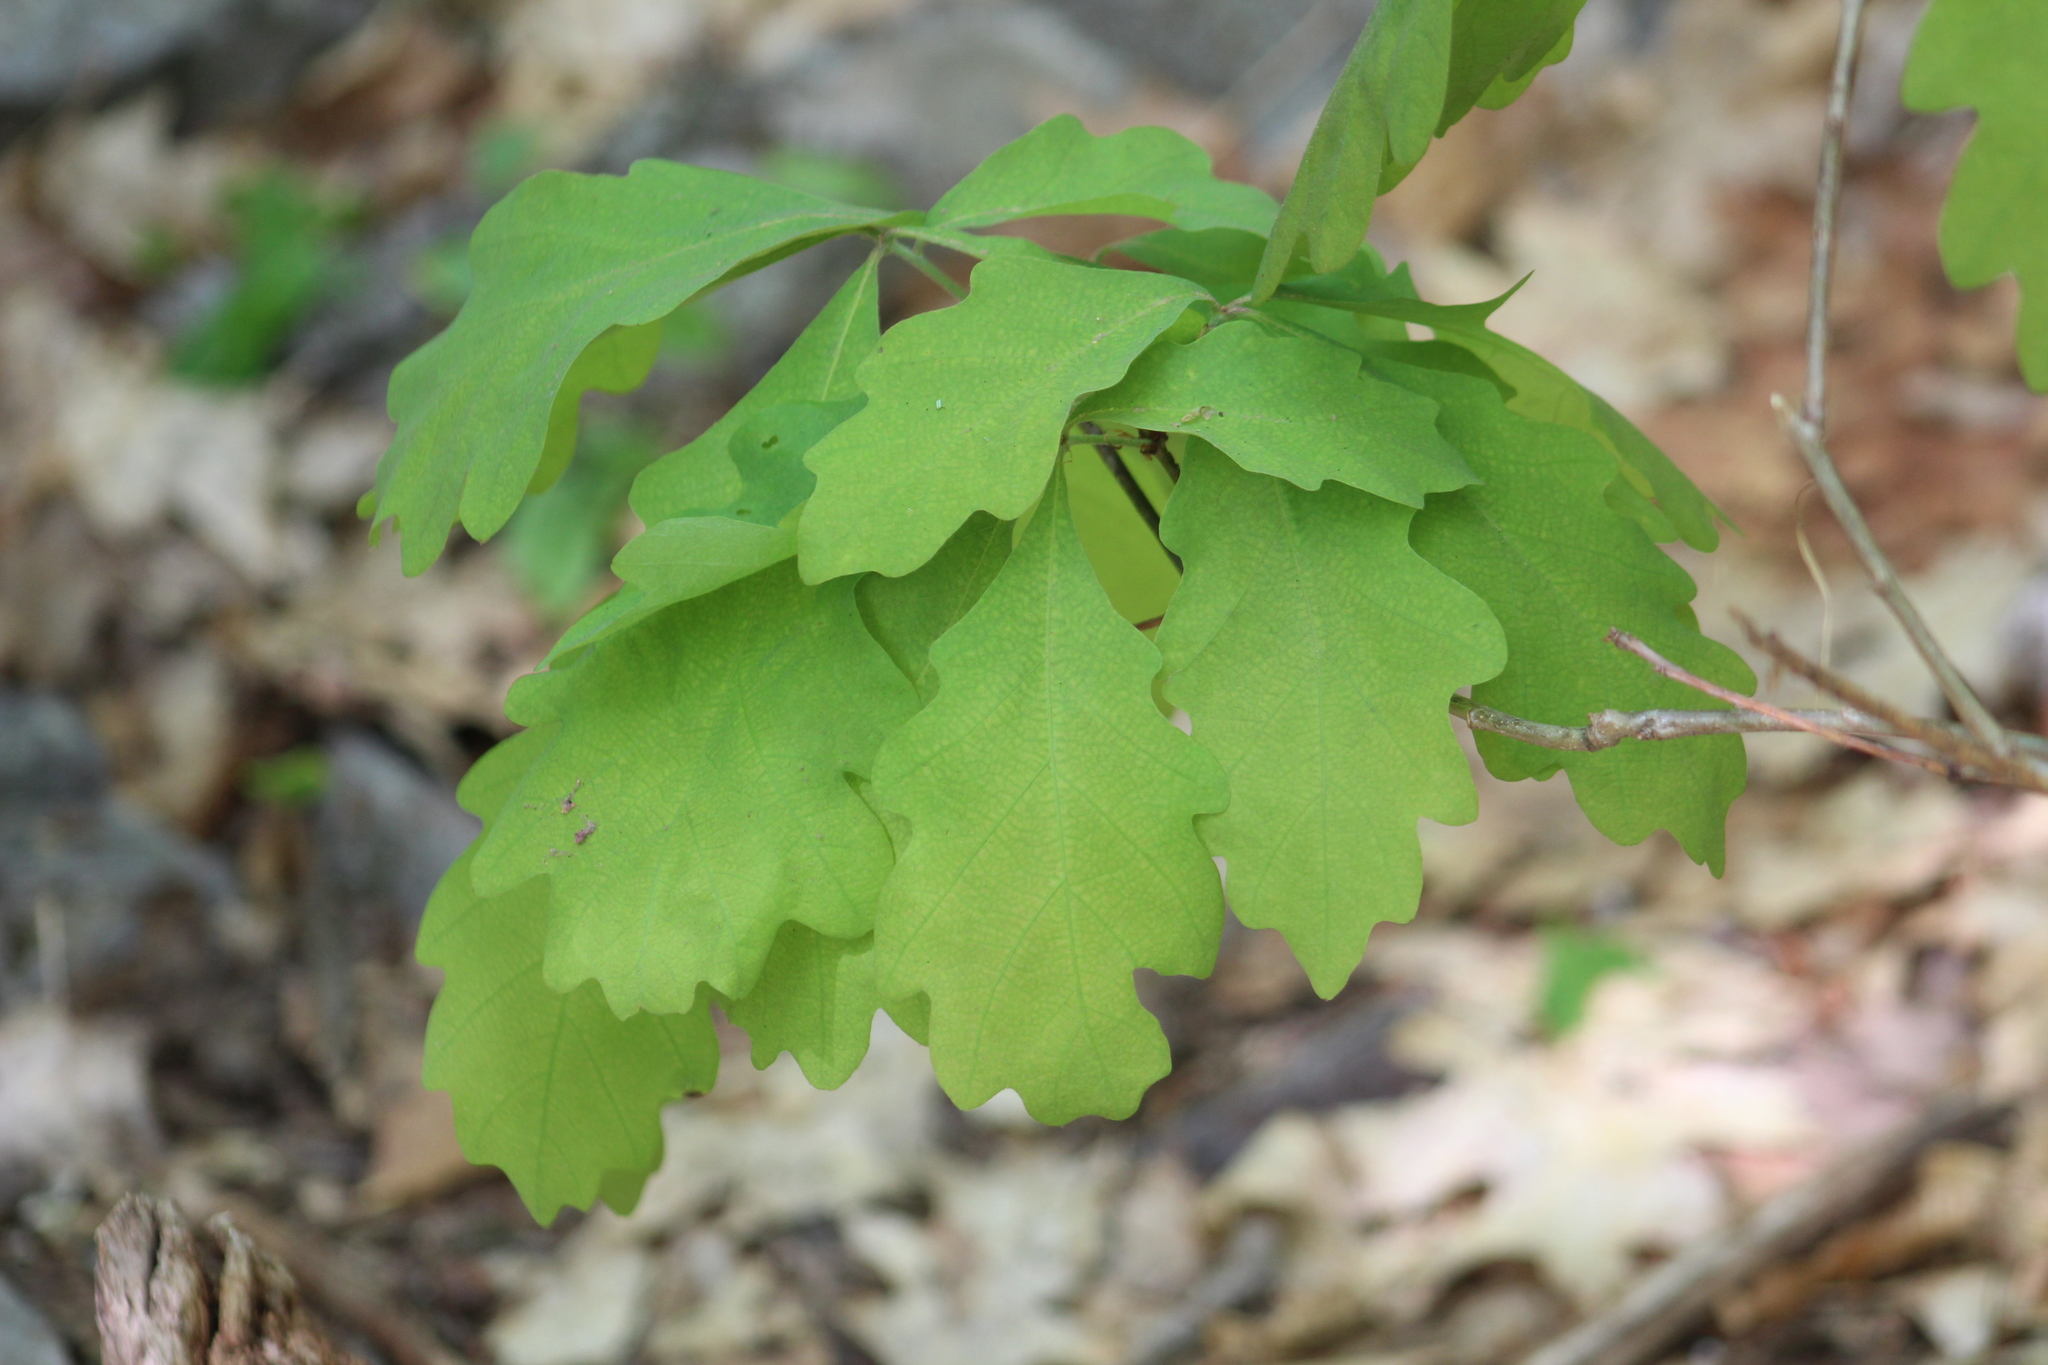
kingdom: Plantae
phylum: Tracheophyta
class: Magnoliopsida
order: Fagales
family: Fagaceae
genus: Quercus
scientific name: Quercus alba
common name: White oak
